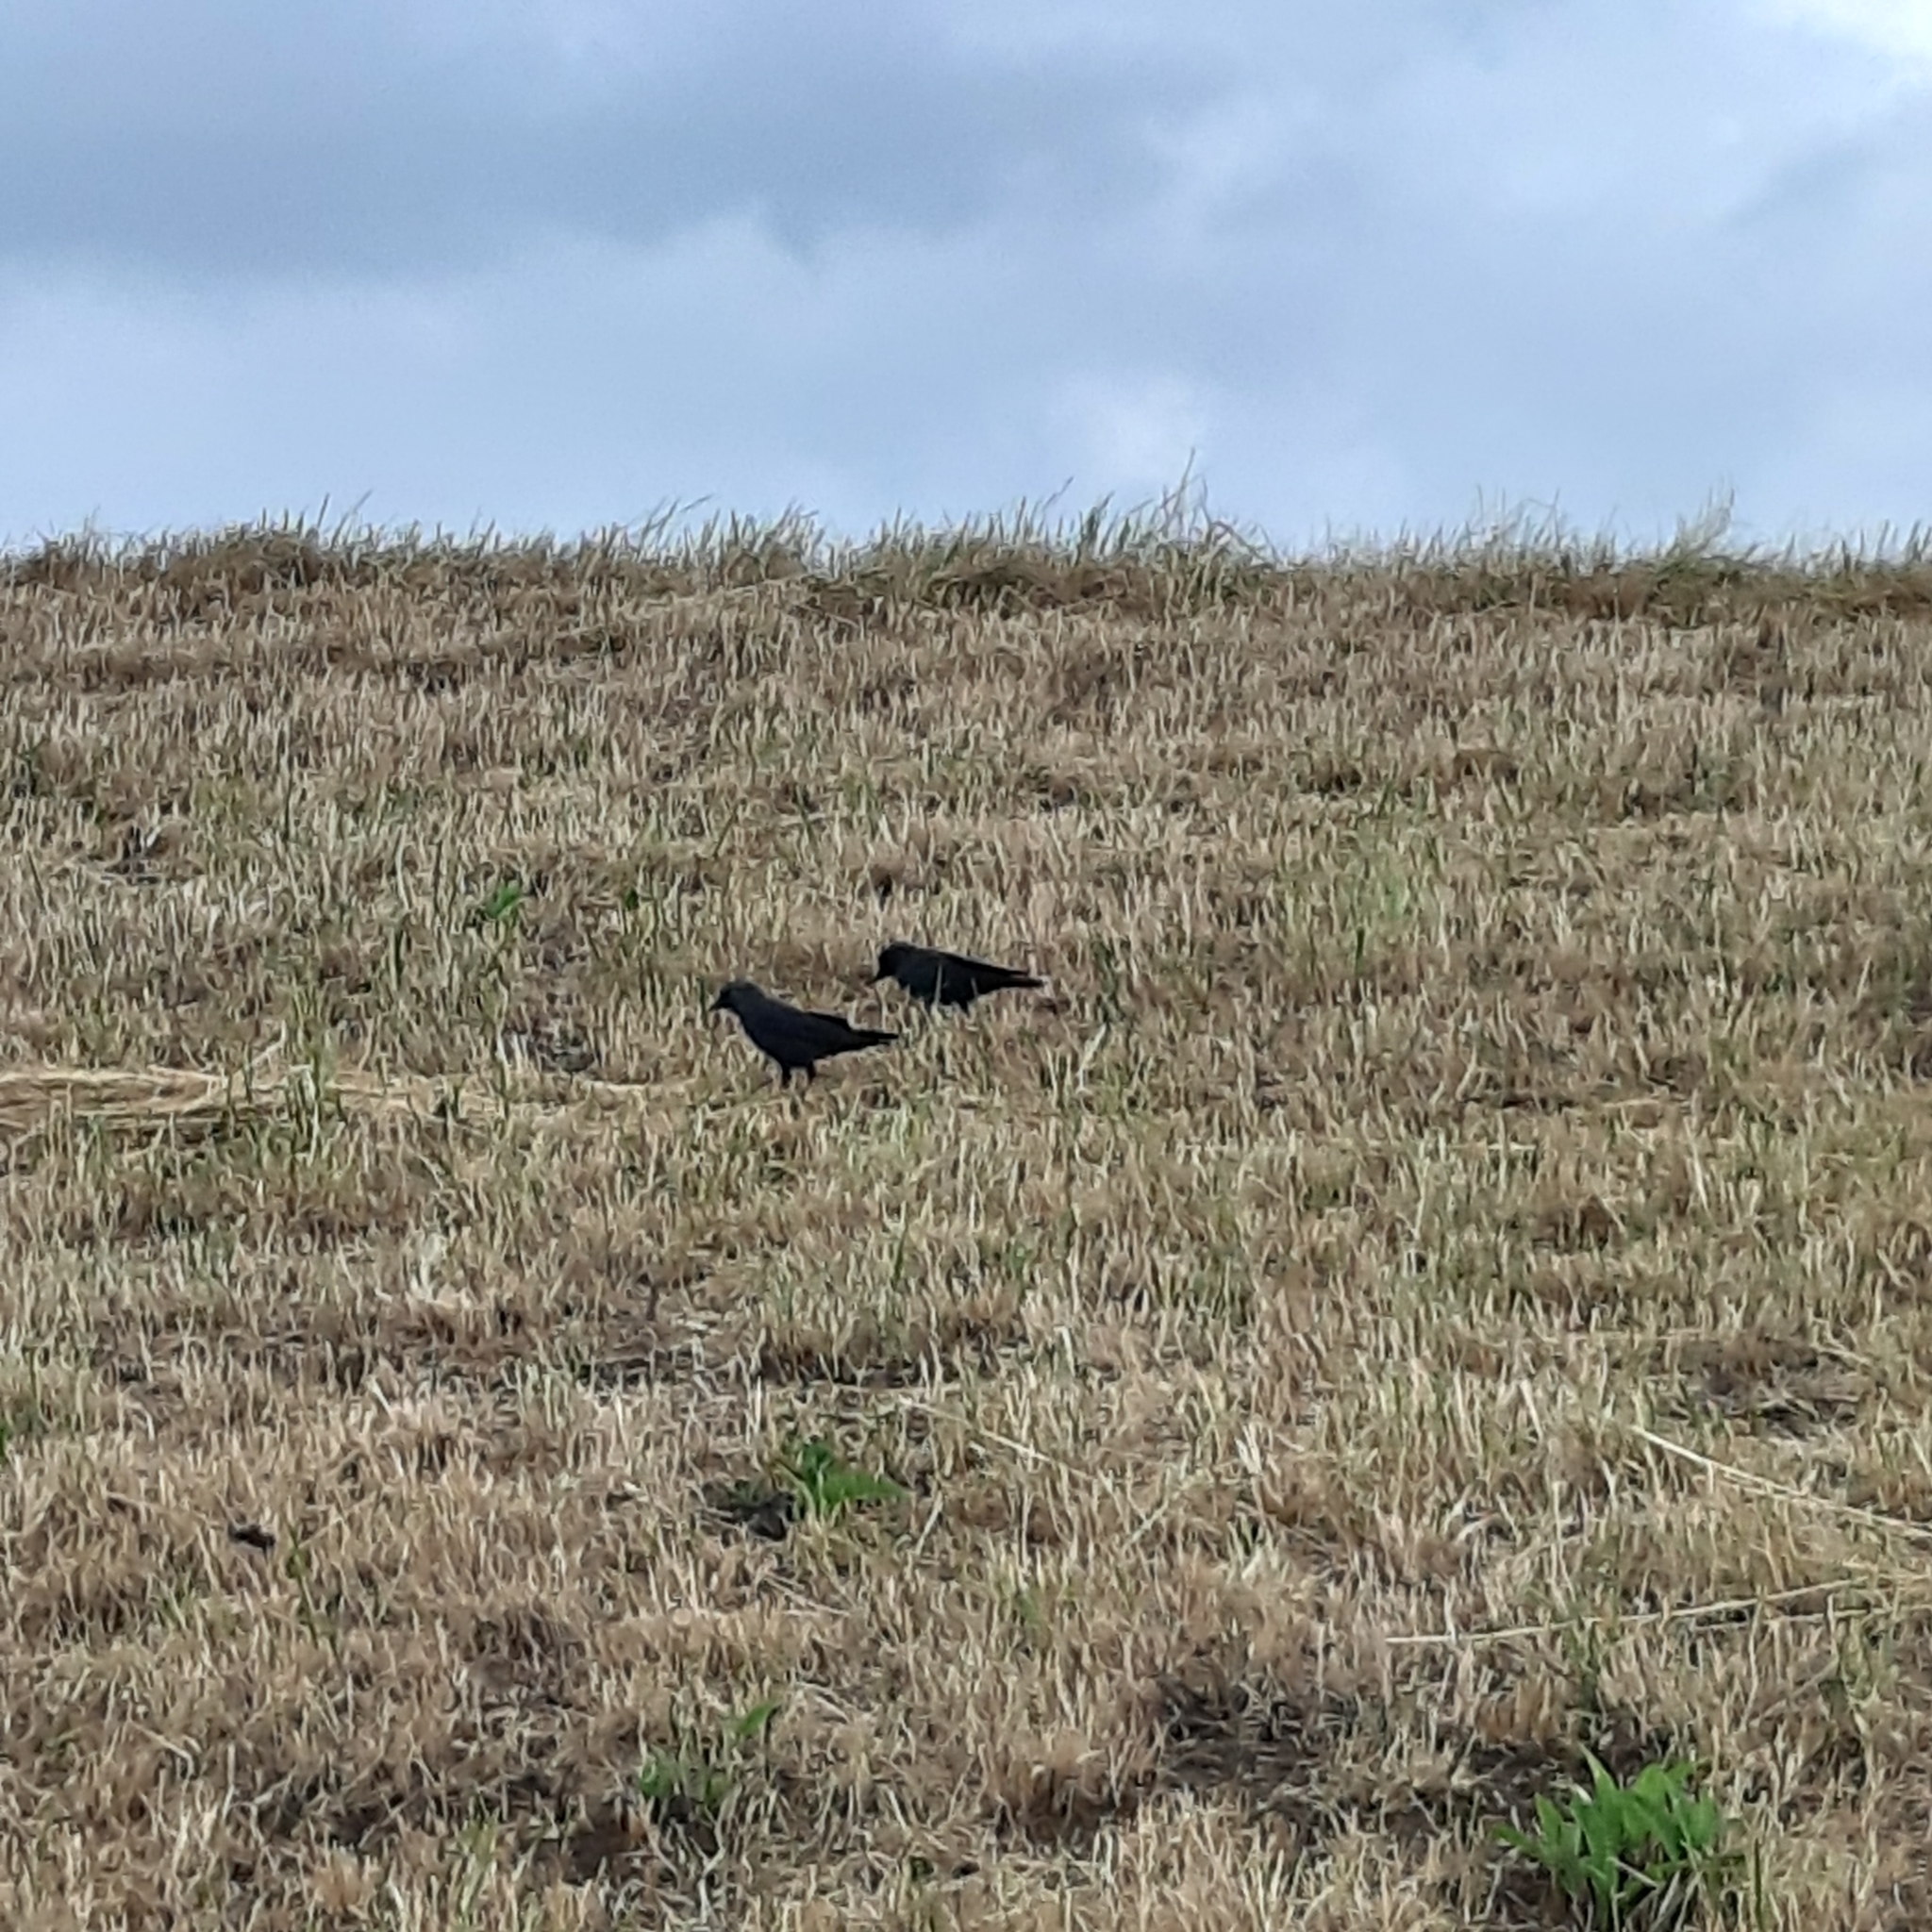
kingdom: Animalia
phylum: Chordata
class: Aves
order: Passeriformes
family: Corvidae
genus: Coloeus
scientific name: Coloeus monedula
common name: Western jackdaw
